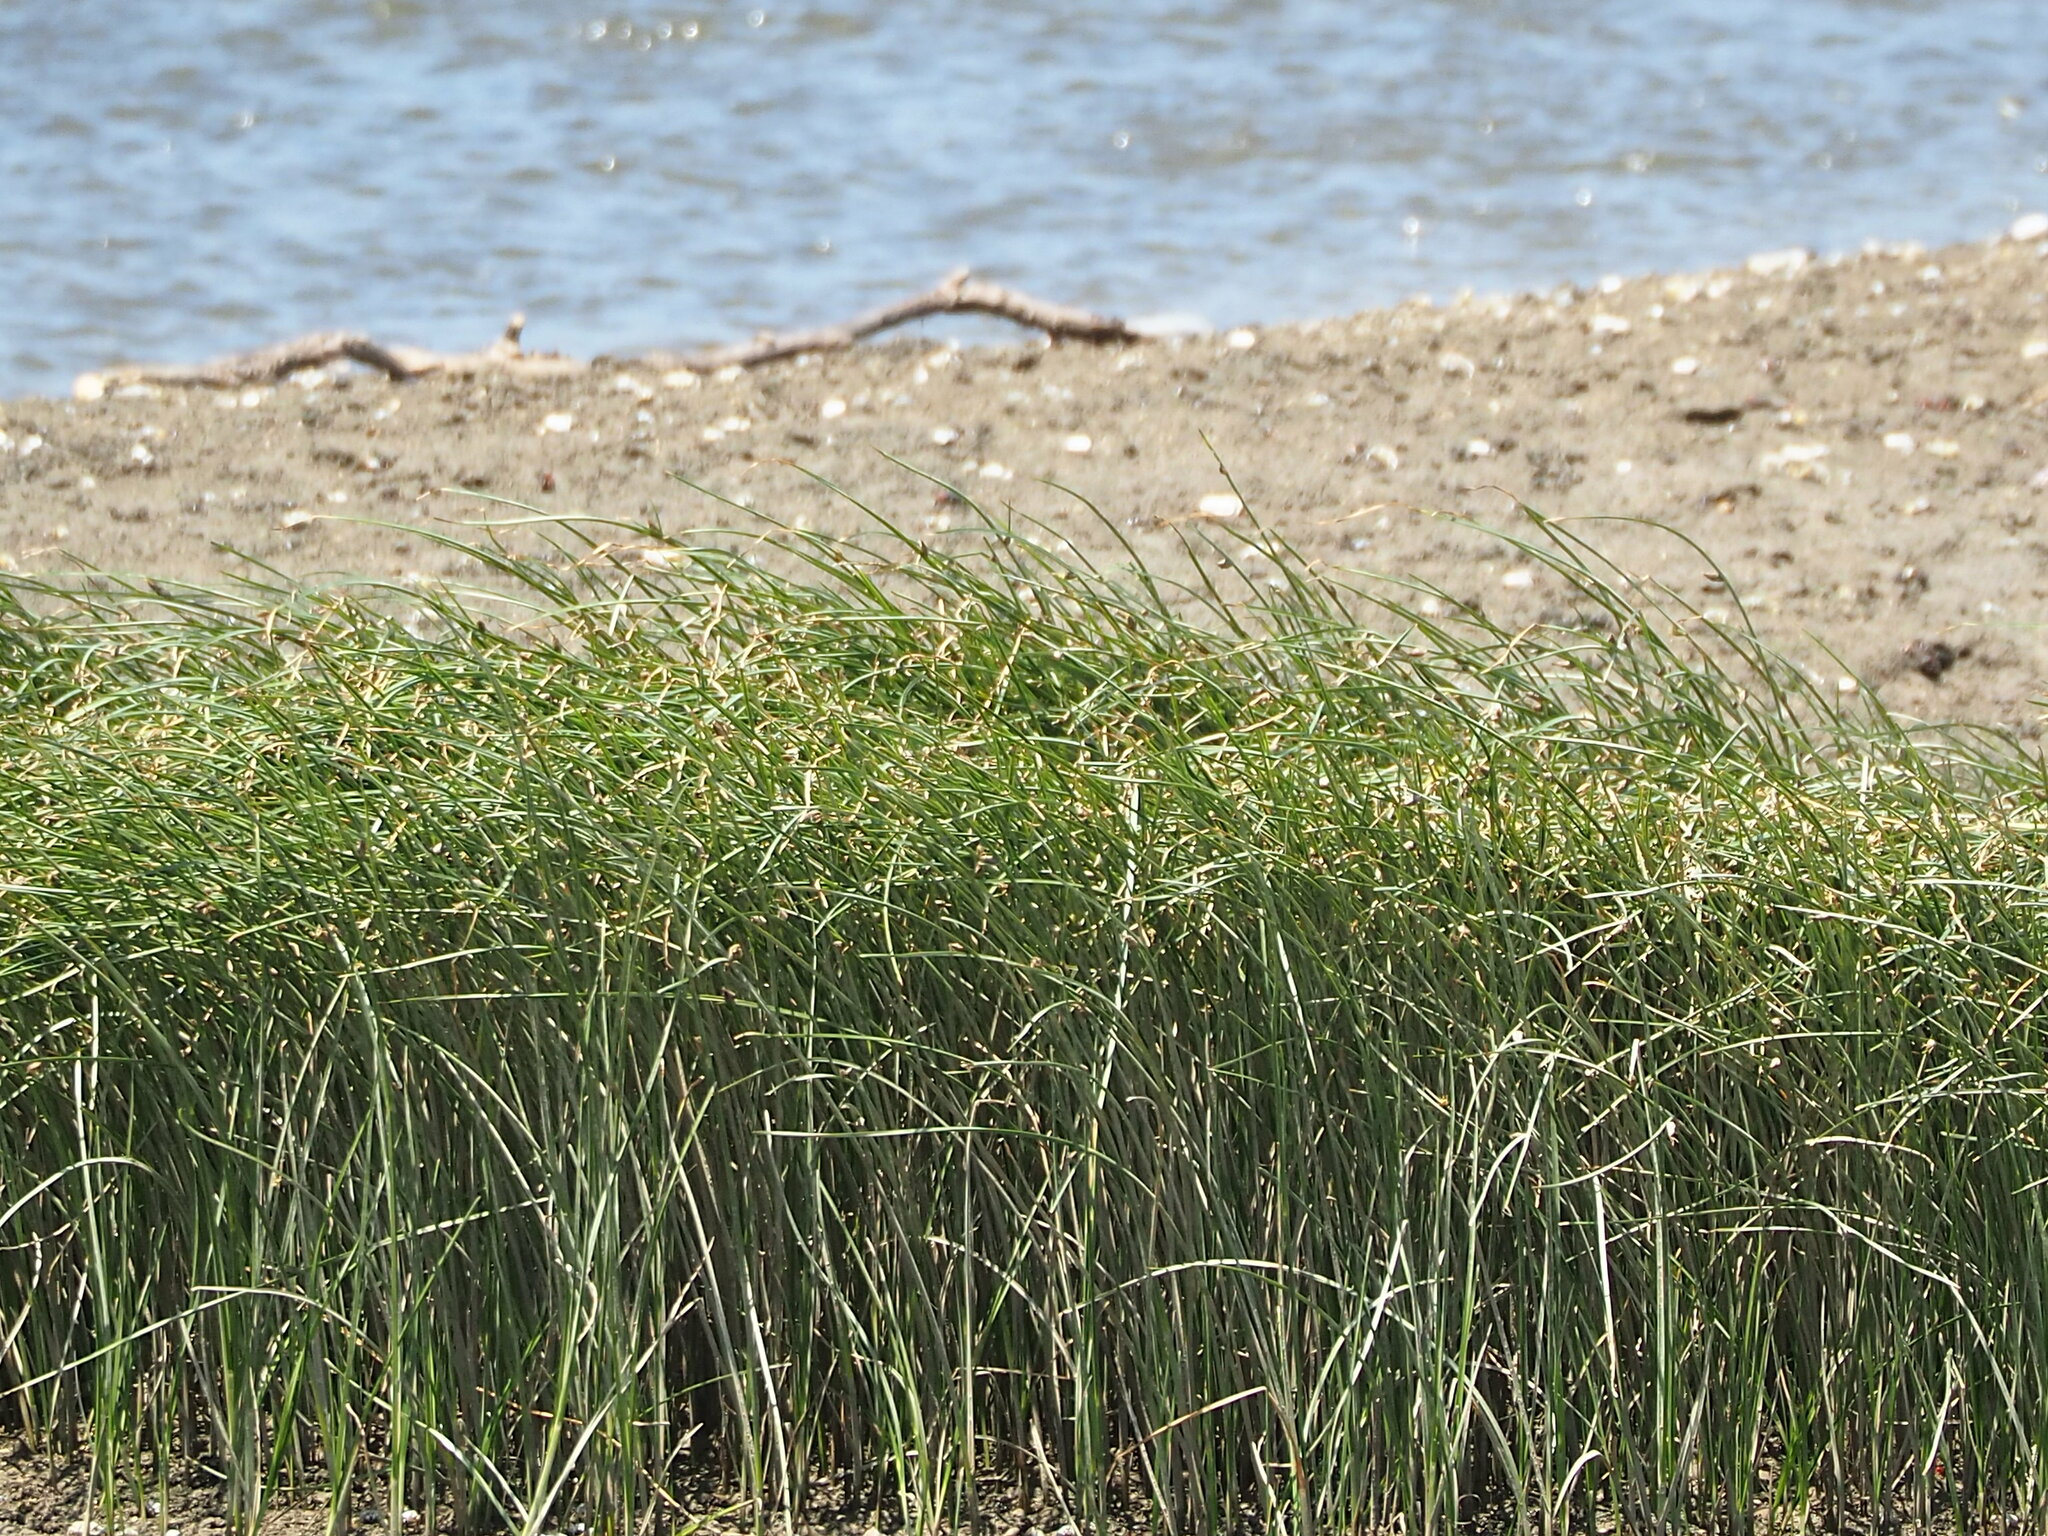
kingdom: Plantae
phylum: Tracheophyta
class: Liliopsida
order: Poales
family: Cyperaceae
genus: Bolboschoenus
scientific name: Bolboschoenus planiculmis
